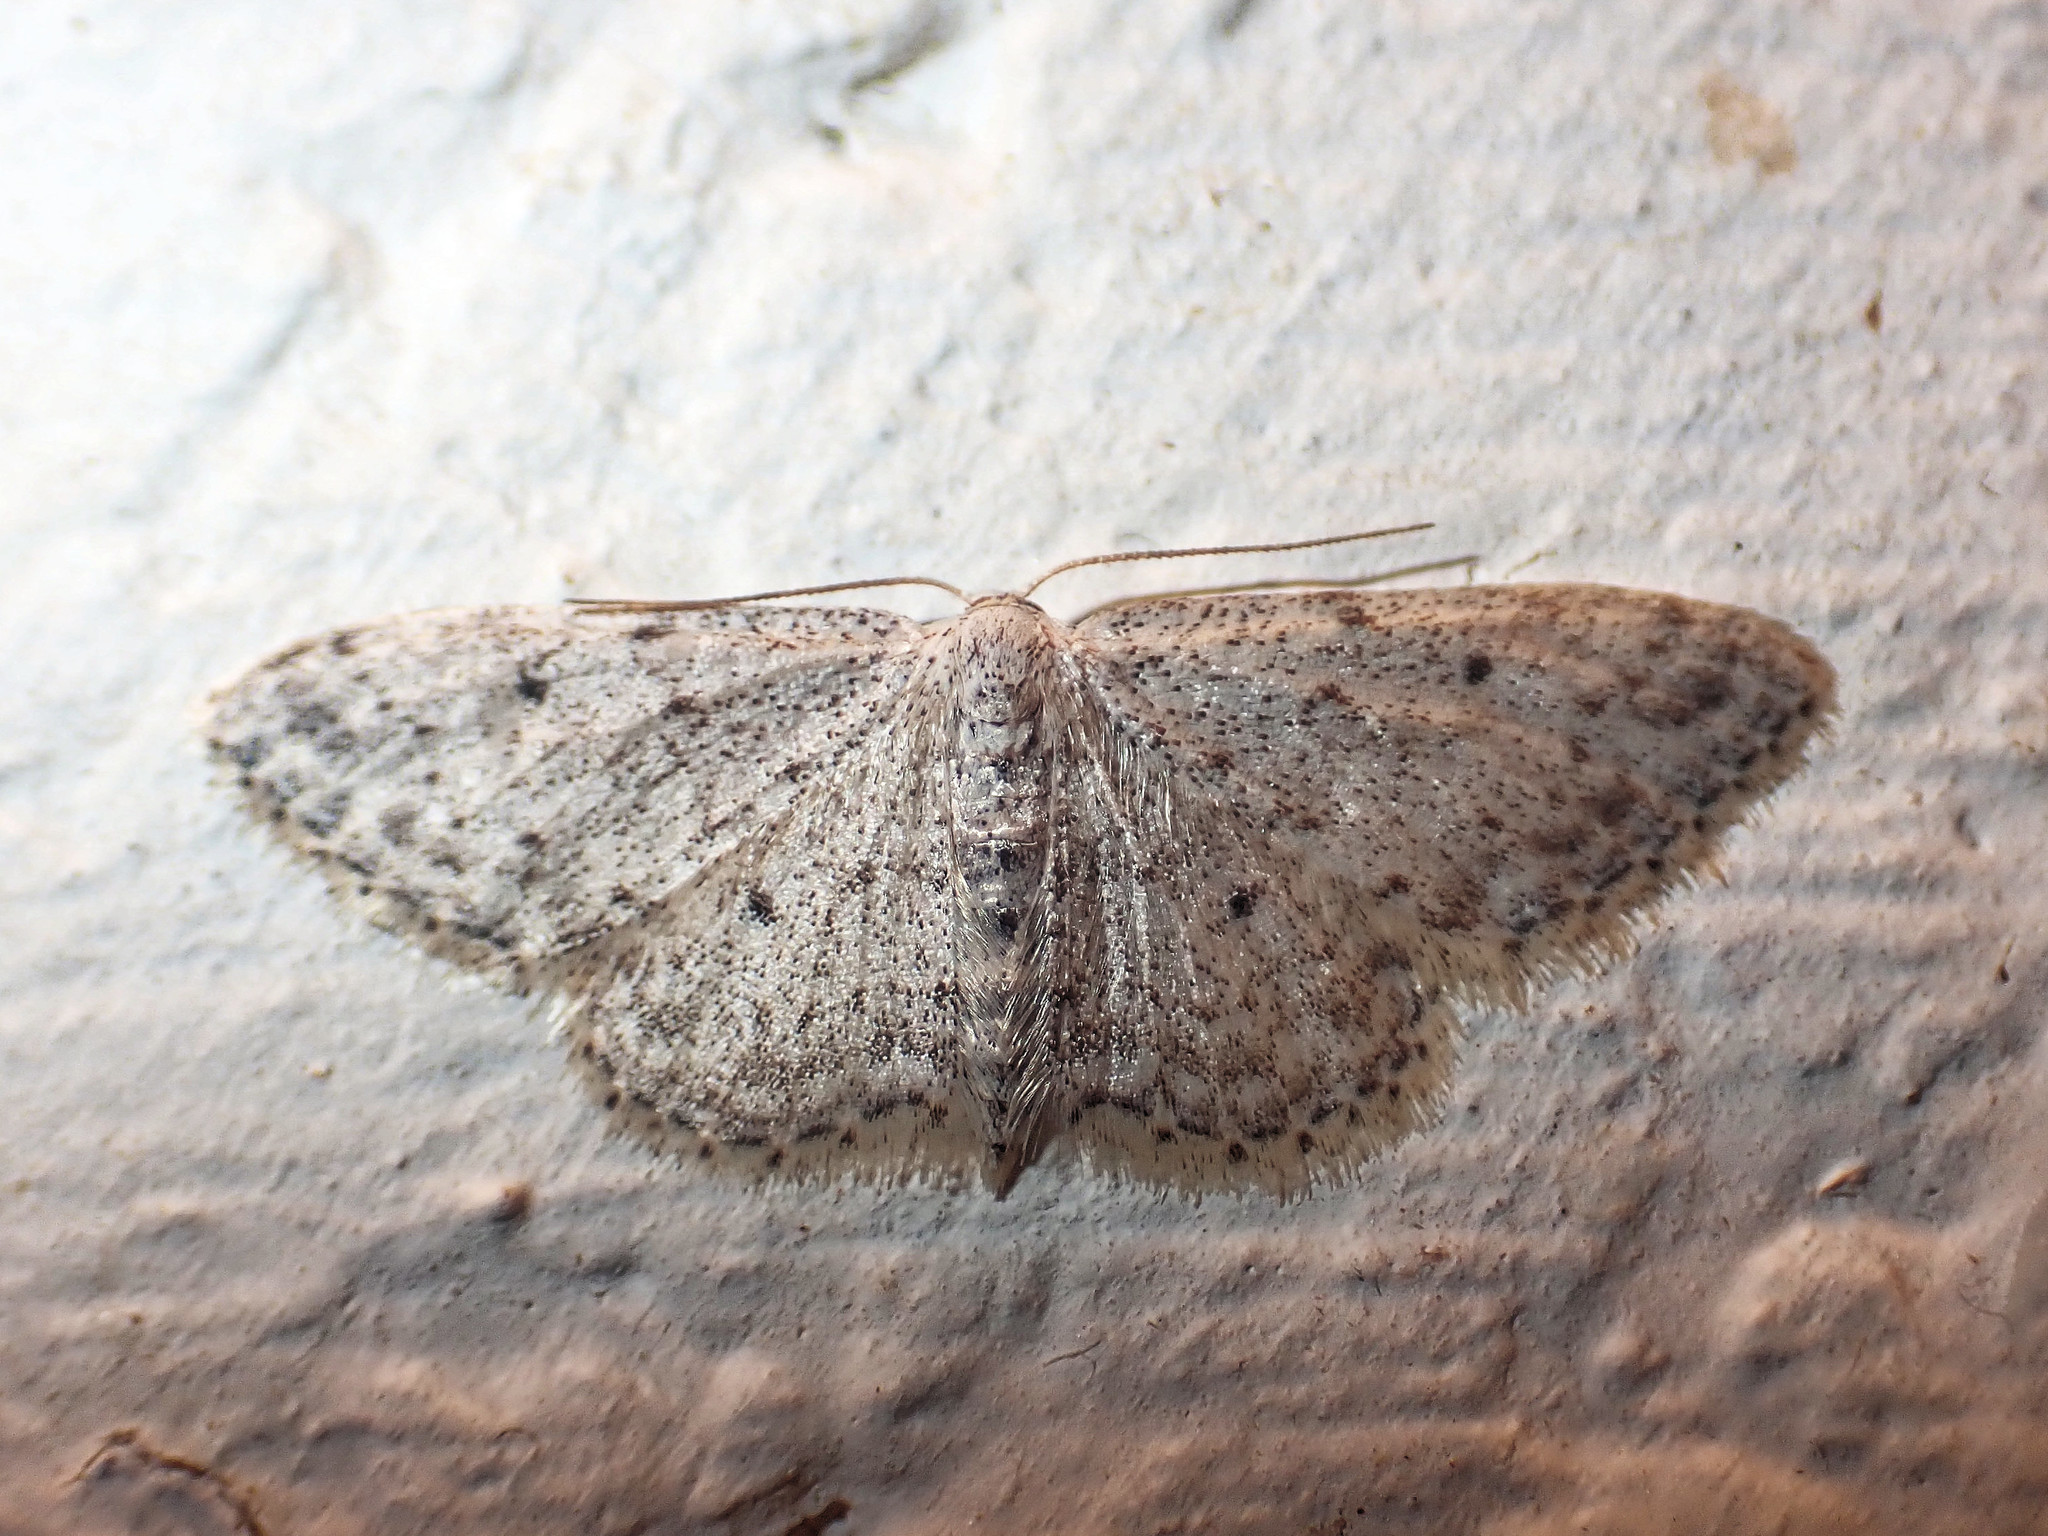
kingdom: Animalia
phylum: Arthropoda
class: Insecta
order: Lepidoptera
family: Geometridae
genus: Idaea
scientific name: Idaea seriata
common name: Small dusty wave
